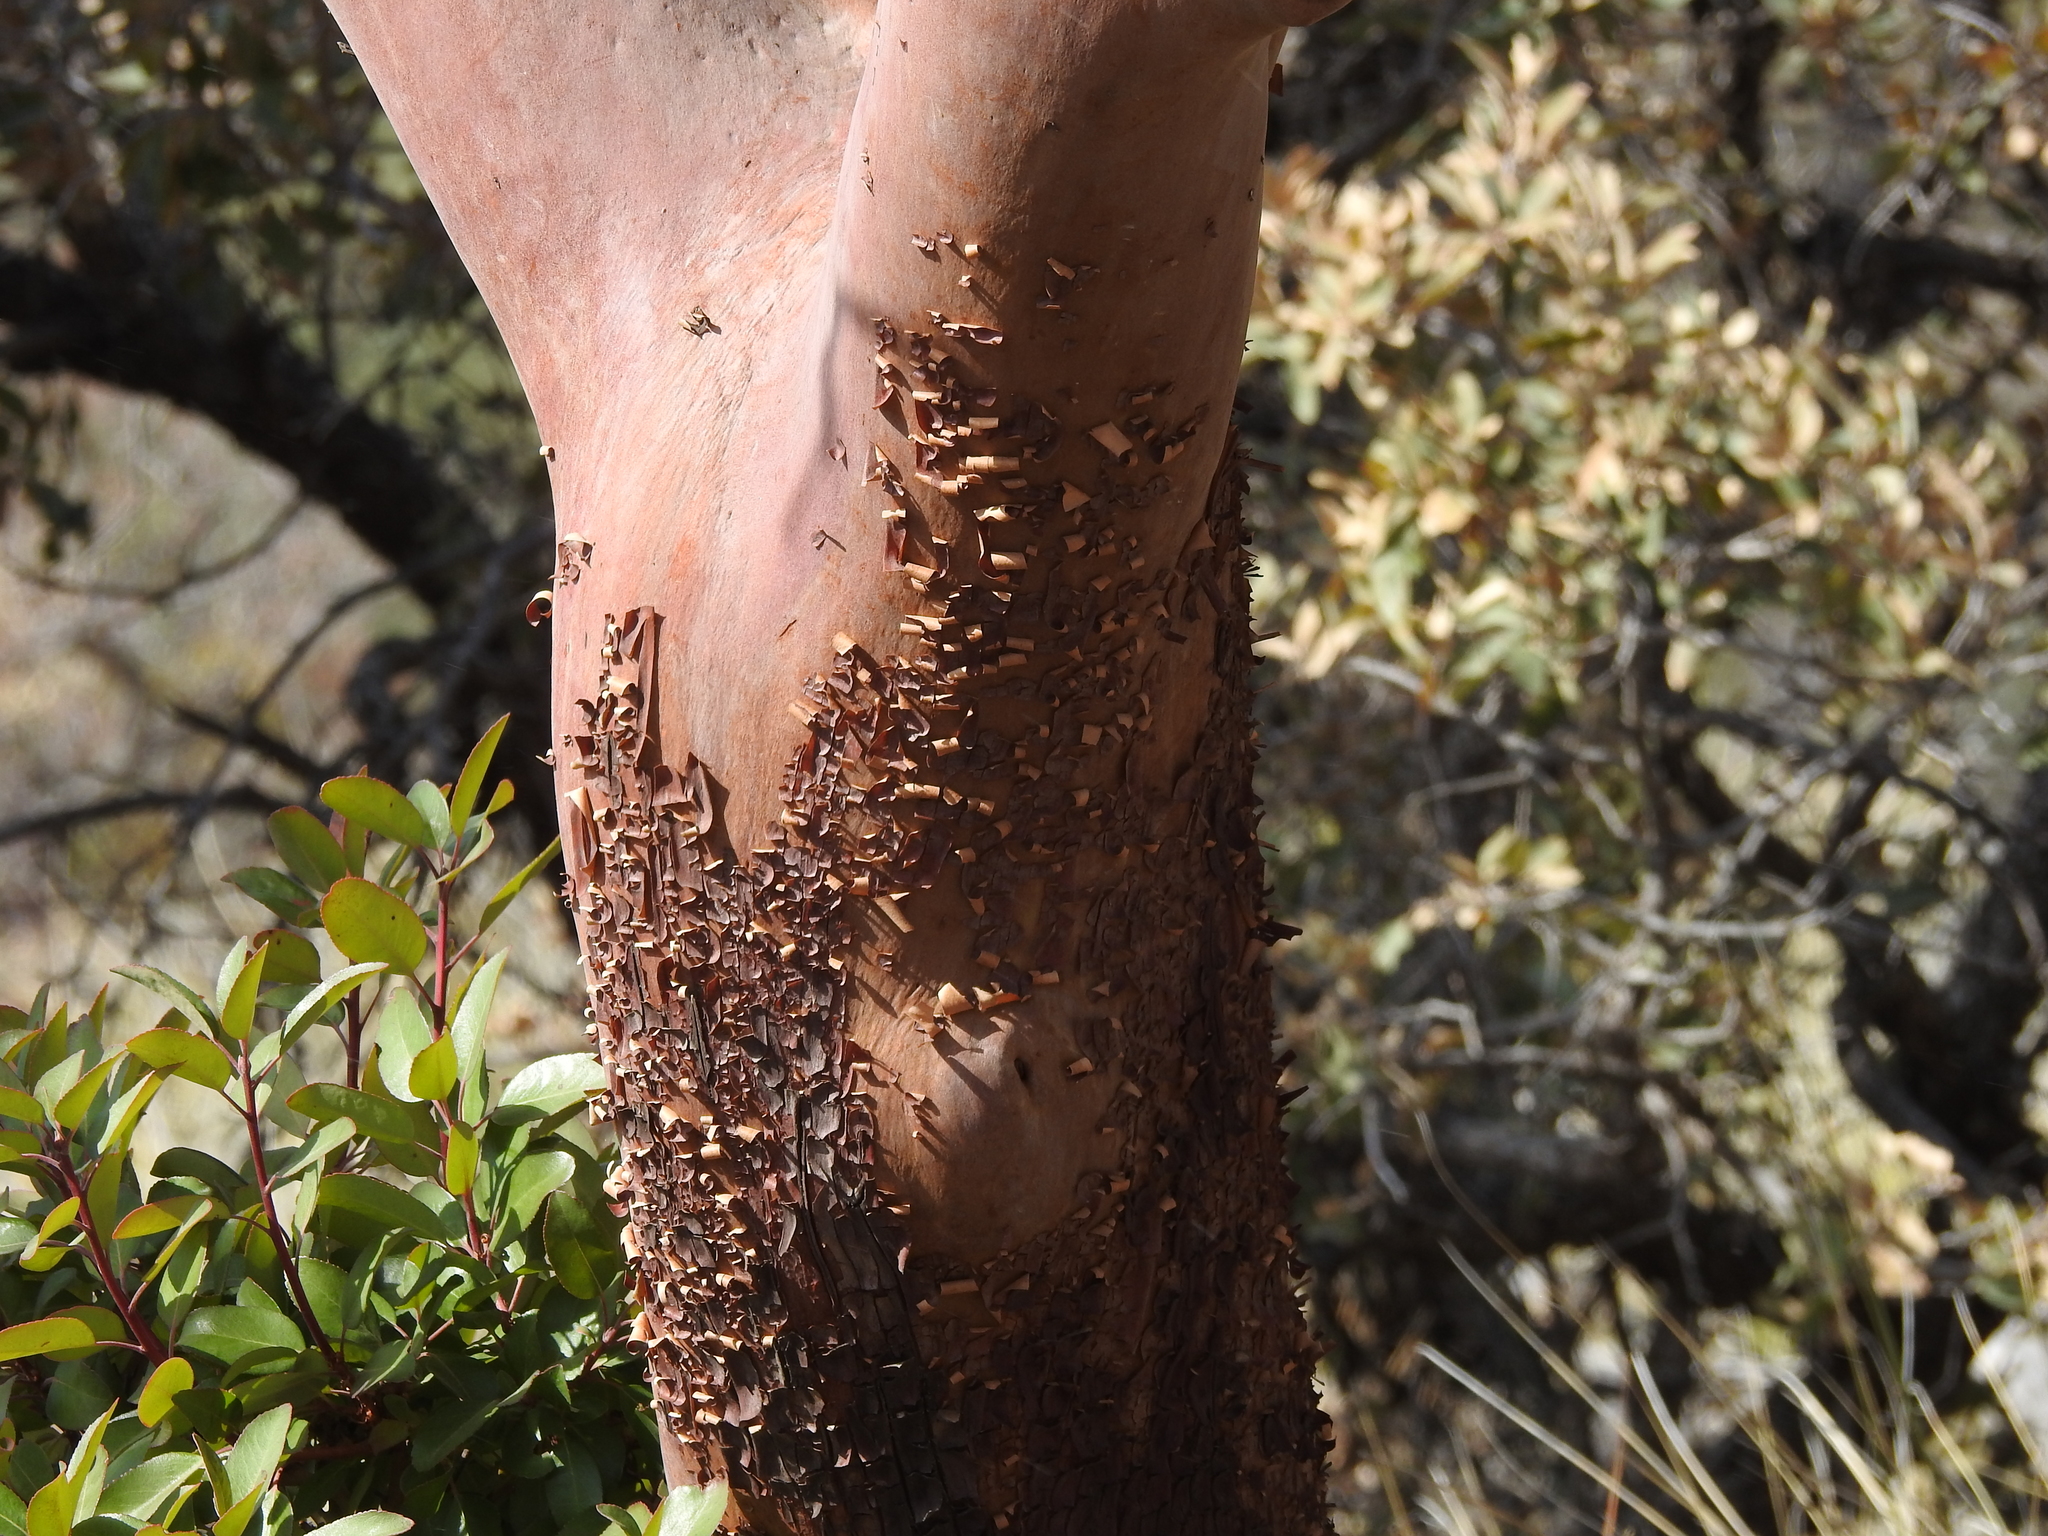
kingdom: Plantae
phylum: Tracheophyta
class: Magnoliopsida
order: Ericales
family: Ericaceae
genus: Arbutus
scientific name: Arbutus xalapensis
